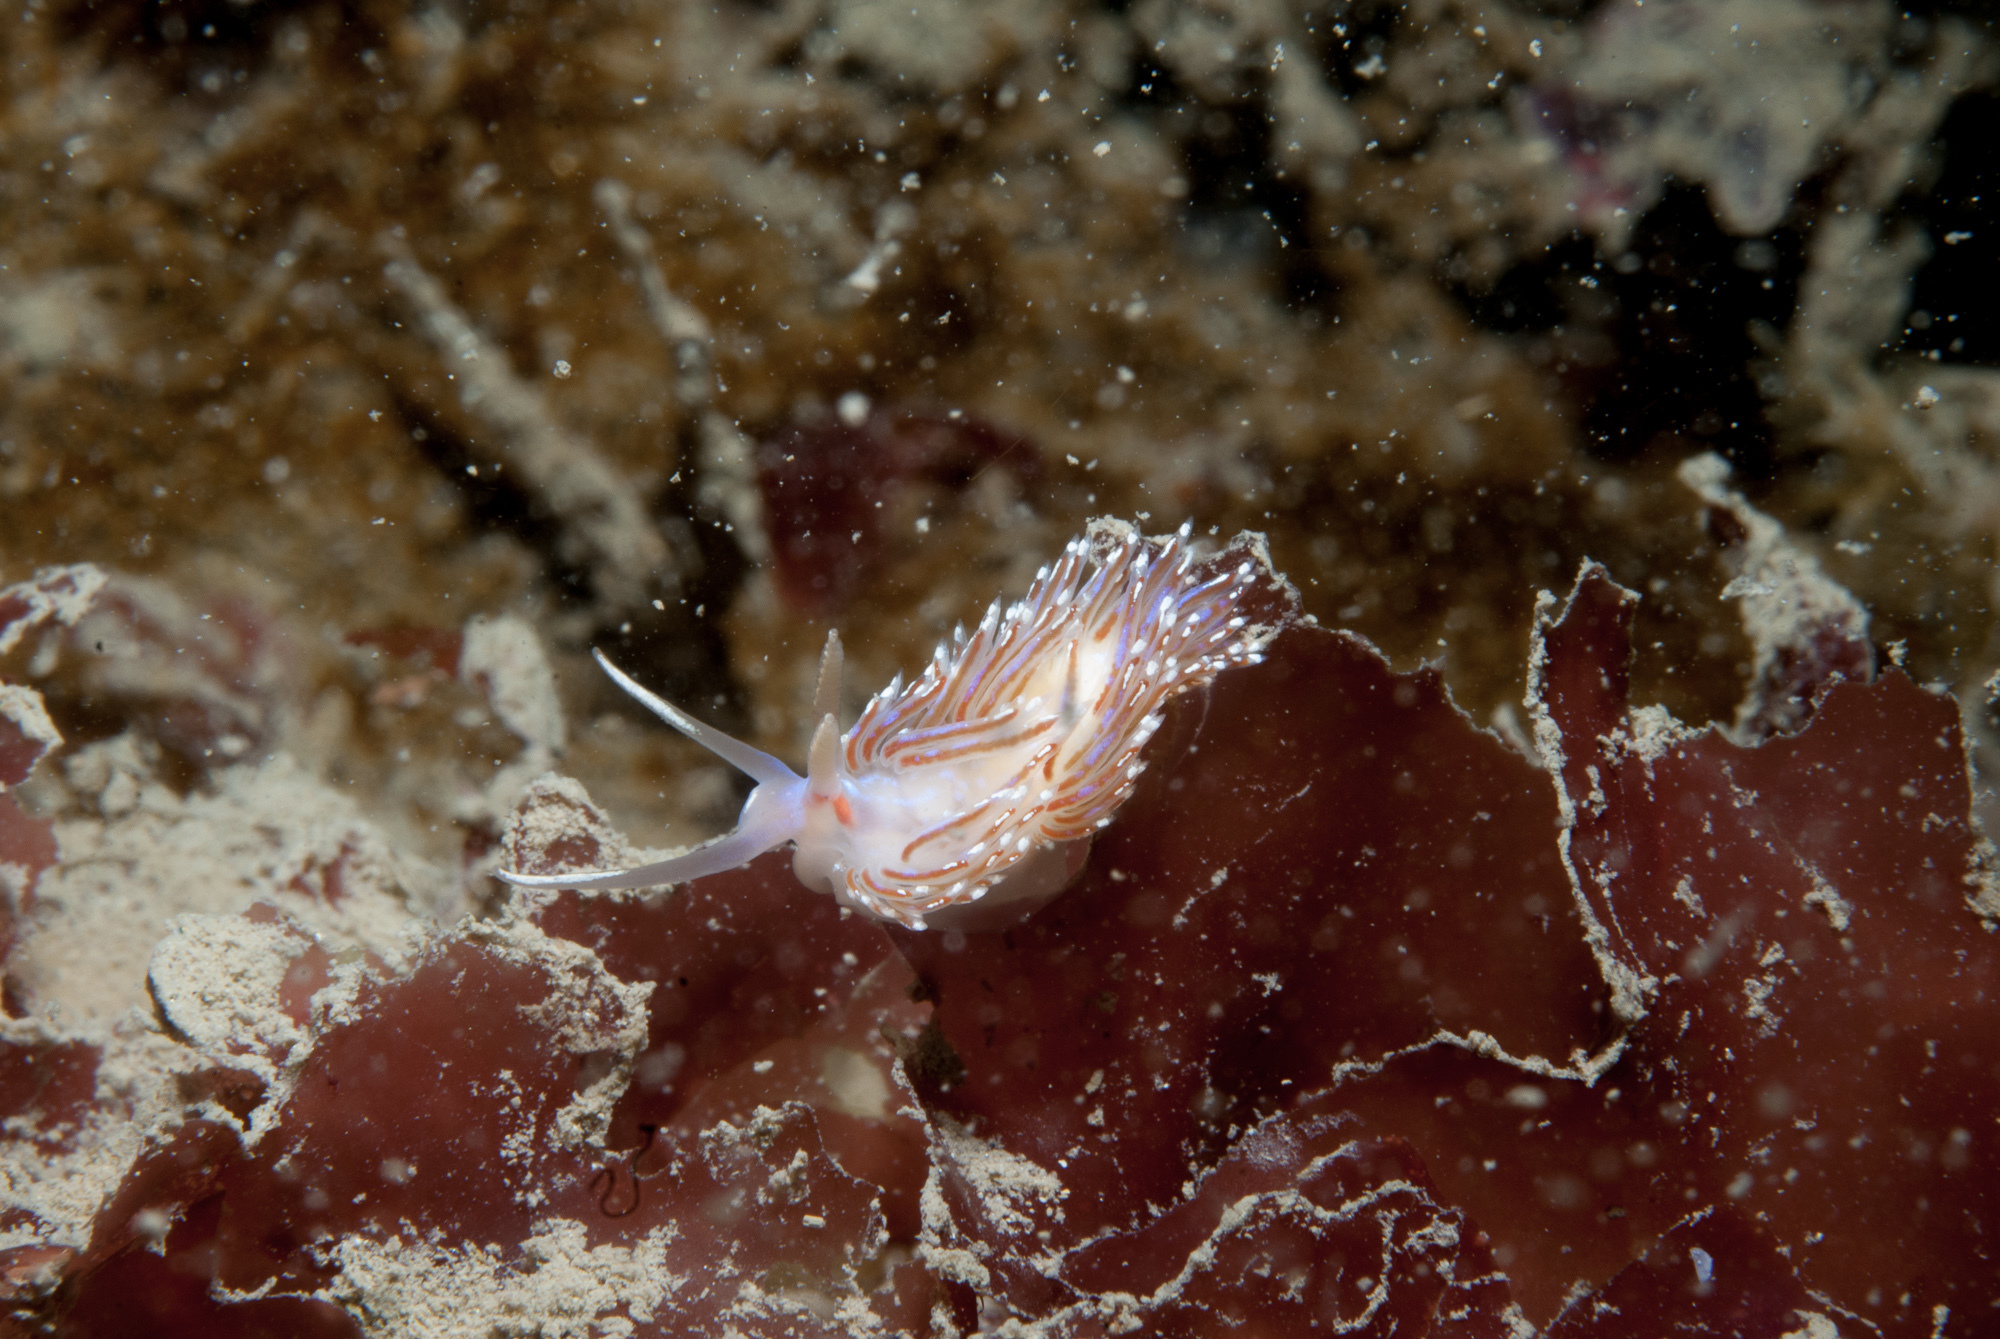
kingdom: Animalia
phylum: Mollusca
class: Gastropoda
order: Nudibranchia
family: Facelinidae
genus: Facelina
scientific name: Facelina auriculata
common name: Slender facelina
